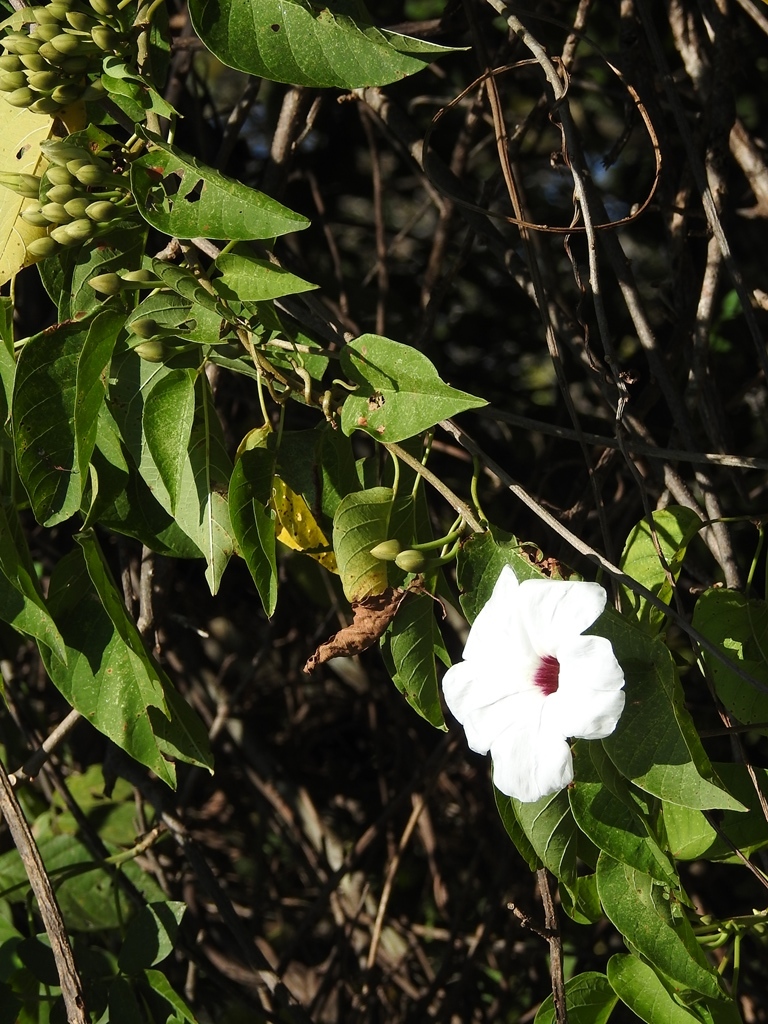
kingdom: Plantae
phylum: Tracheophyta
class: Magnoliopsida
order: Solanales
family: Convolvulaceae
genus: Ipomoea
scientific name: Ipomoea pauciflora
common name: Tree morningglory
